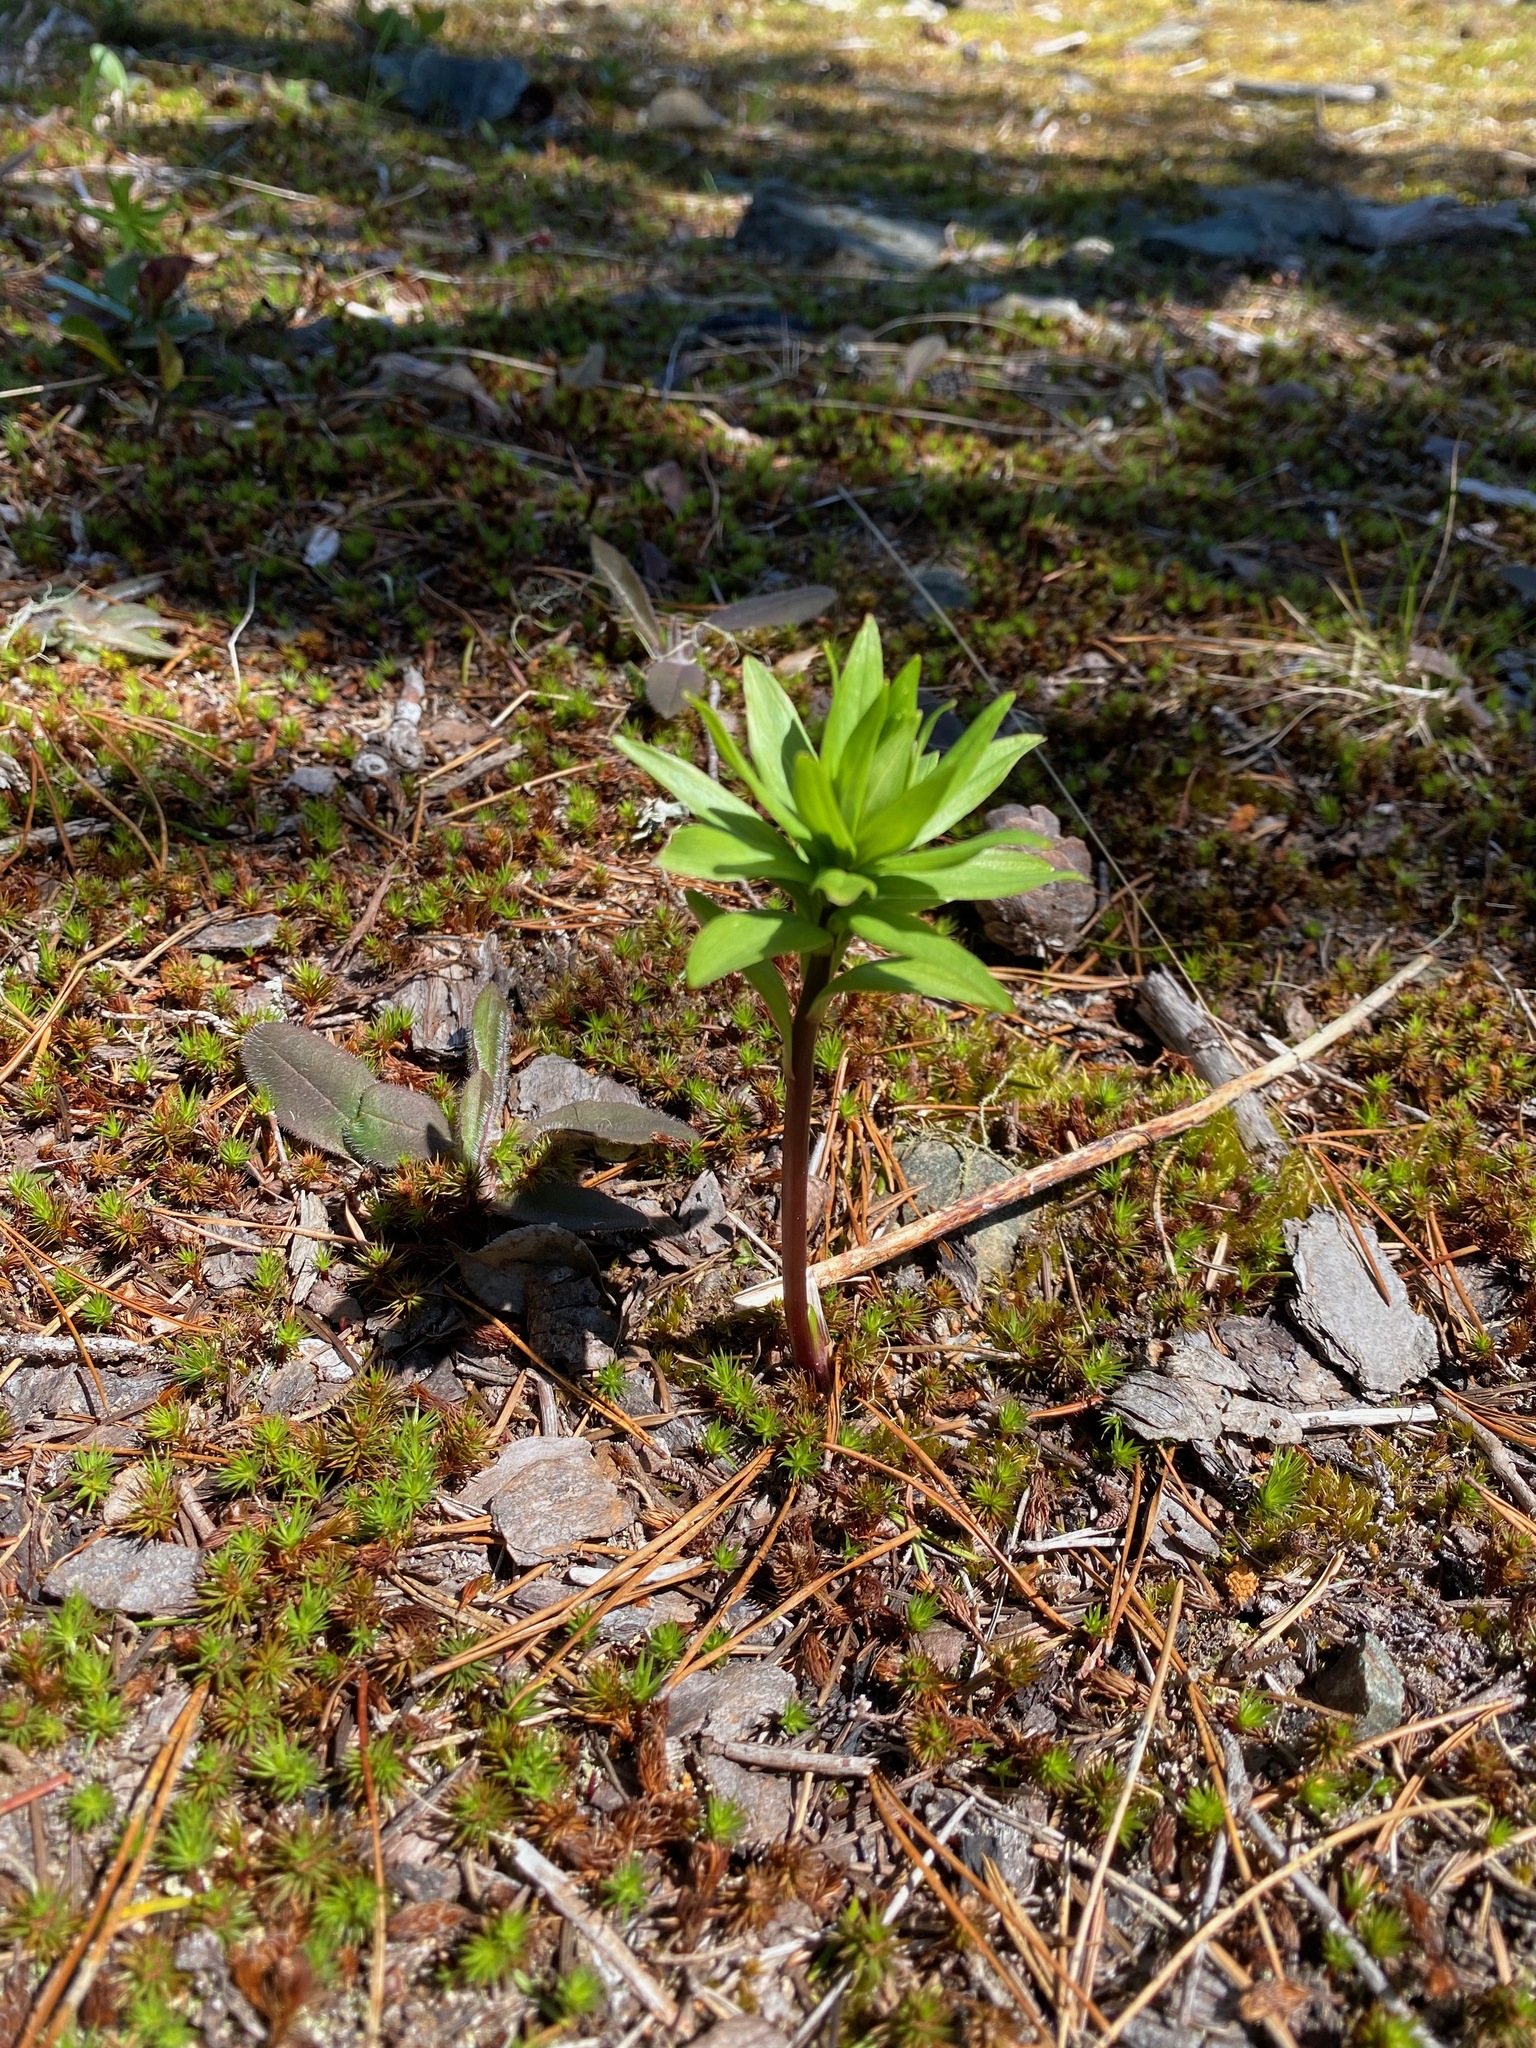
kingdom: Plantae
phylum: Tracheophyta
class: Liliopsida
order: Liliales
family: Liliaceae
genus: Lilium
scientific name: Lilium columbianum
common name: Columbia lily
